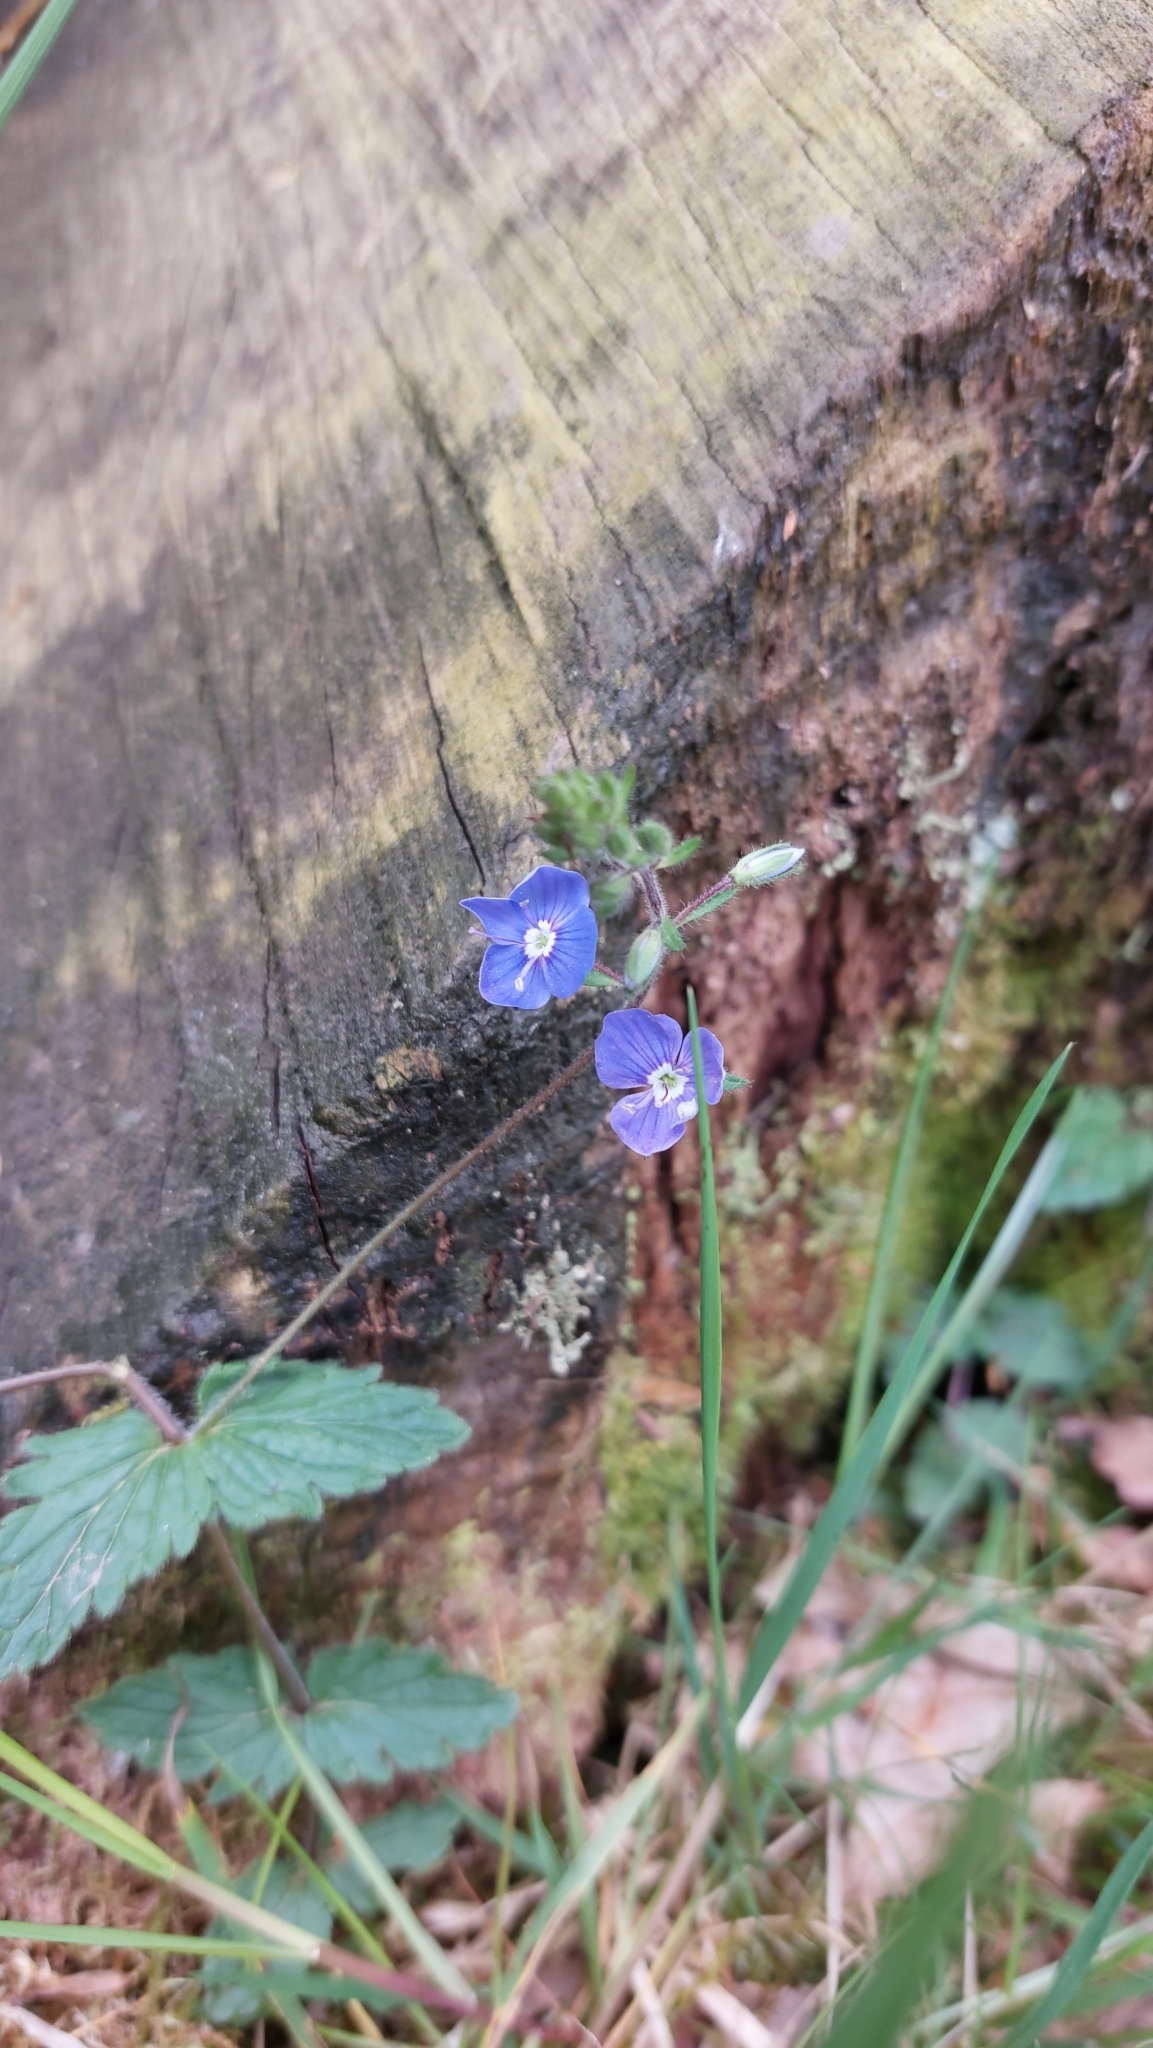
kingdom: Plantae
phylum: Tracheophyta
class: Magnoliopsida
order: Lamiales
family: Plantaginaceae
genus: Veronica
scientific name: Veronica chamaedrys
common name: Germander speedwell
